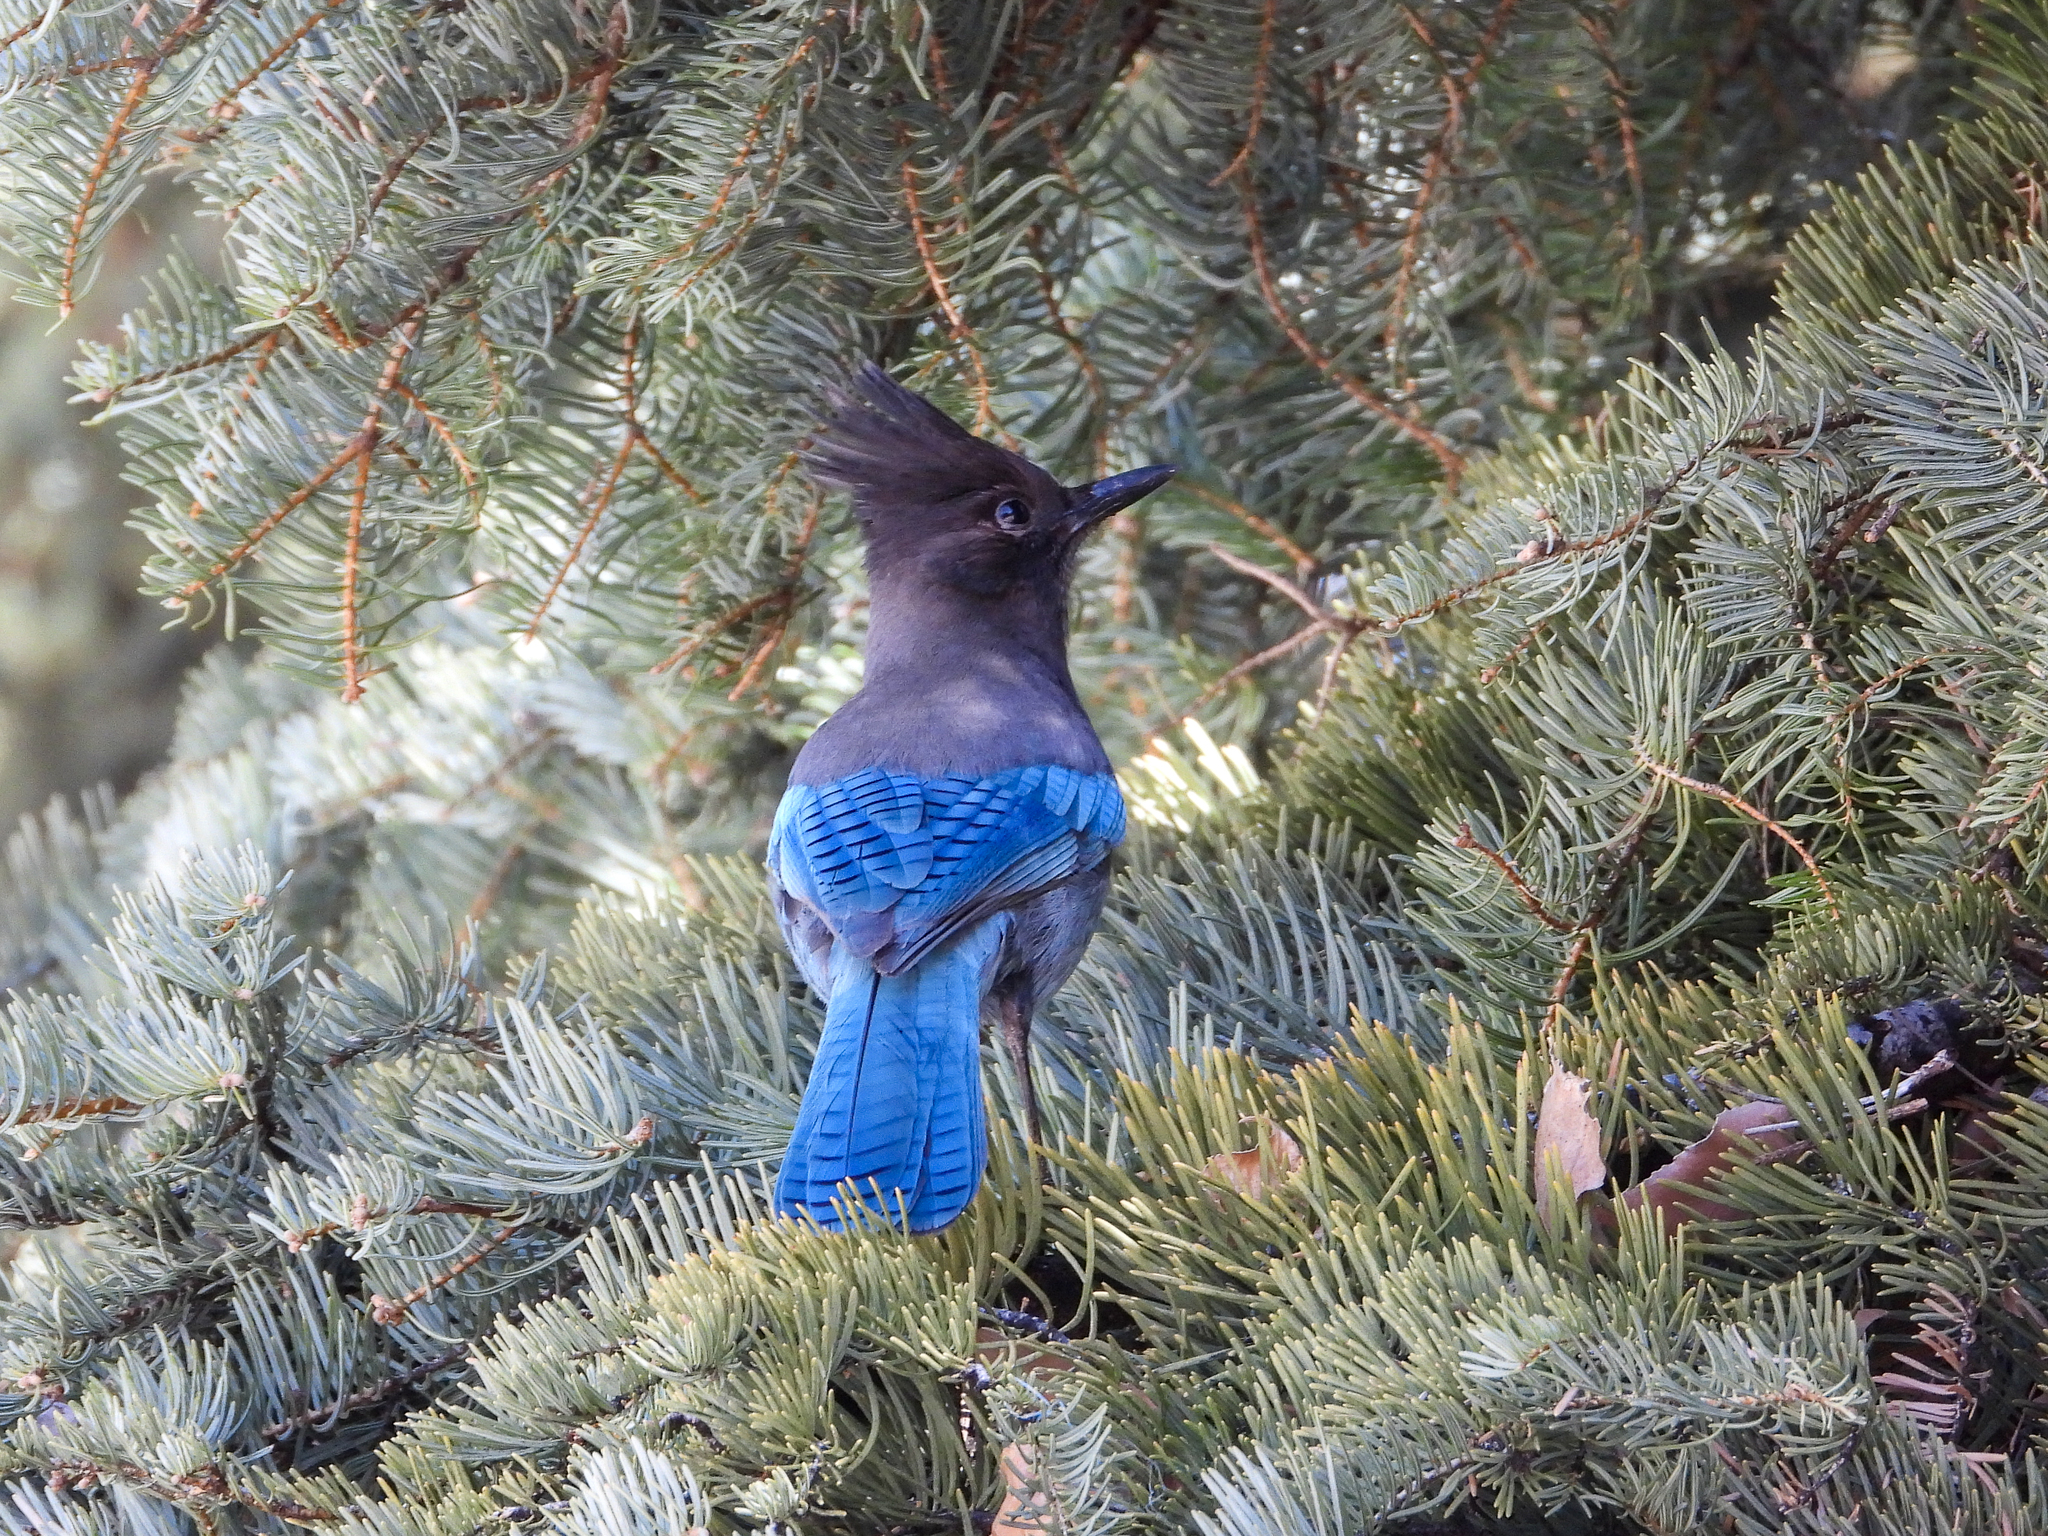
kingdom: Animalia
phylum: Chordata
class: Aves
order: Passeriformes
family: Corvidae
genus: Cyanocitta
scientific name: Cyanocitta stelleri
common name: Steller's jay
